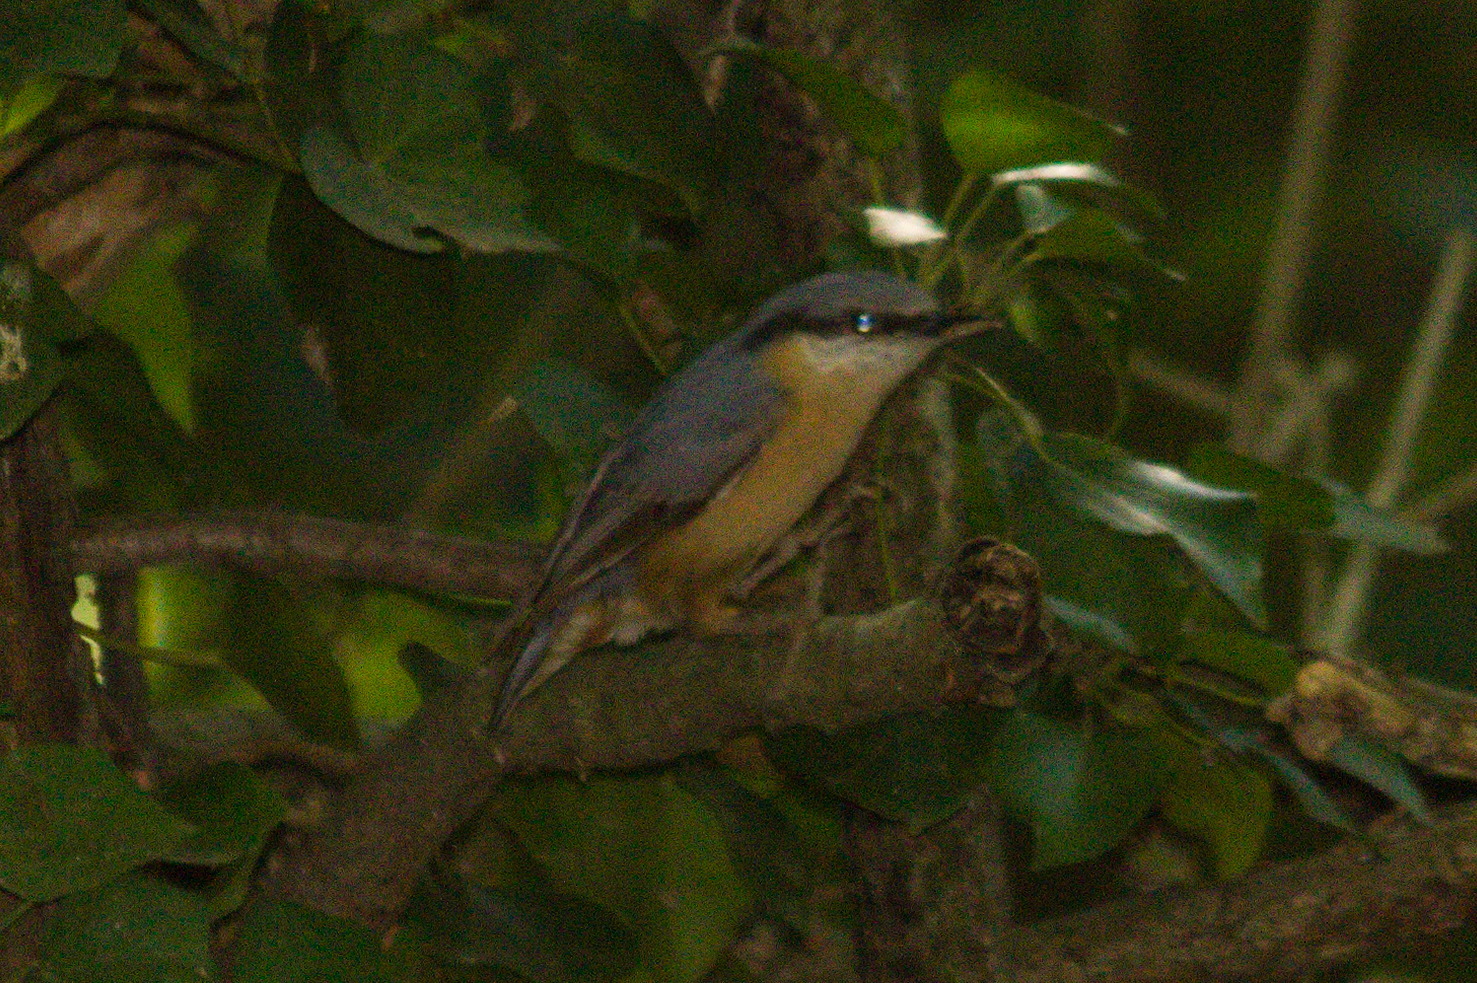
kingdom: Animalia
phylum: Chordata
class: Aves
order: Passeriformes
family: Sittidae
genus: Sitta
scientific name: Sitta europaea
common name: Eurasian nuthatch
